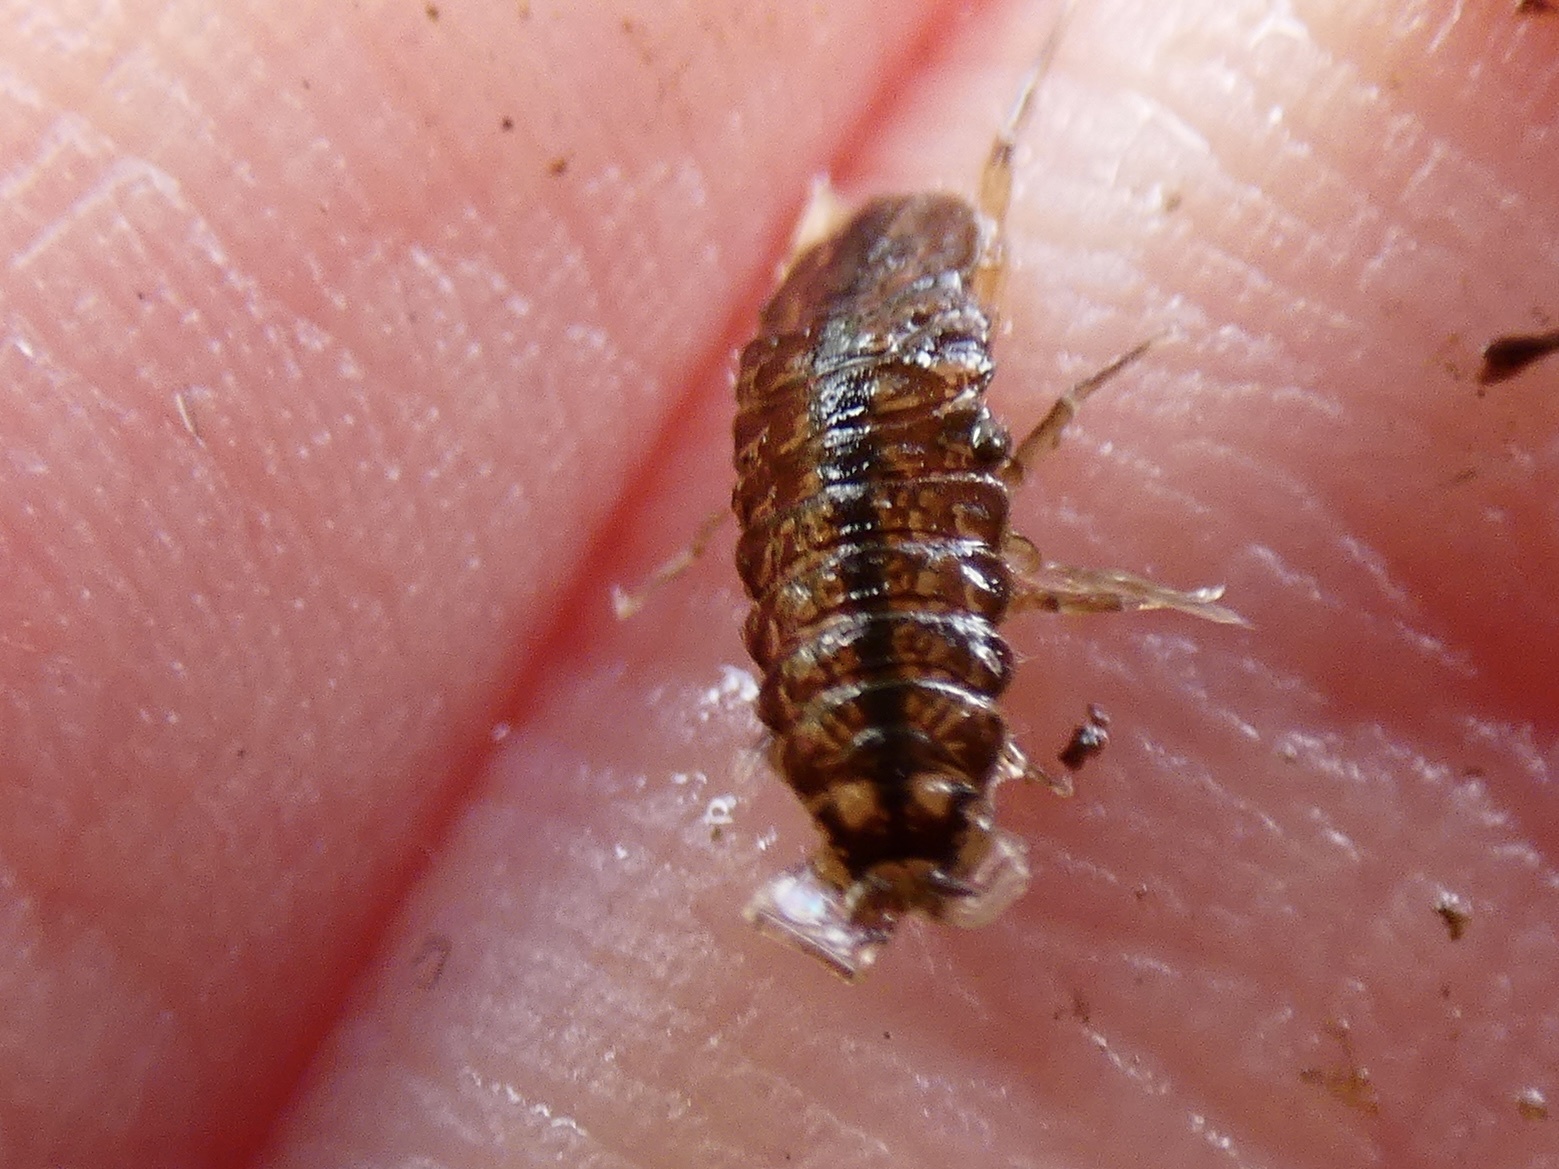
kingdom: Animalia
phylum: Arthropoda
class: Malacostraca
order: Isopoda
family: Asellidae
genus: Asellus
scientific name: Asellus aquaticus
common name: Water hog lice/slaters
